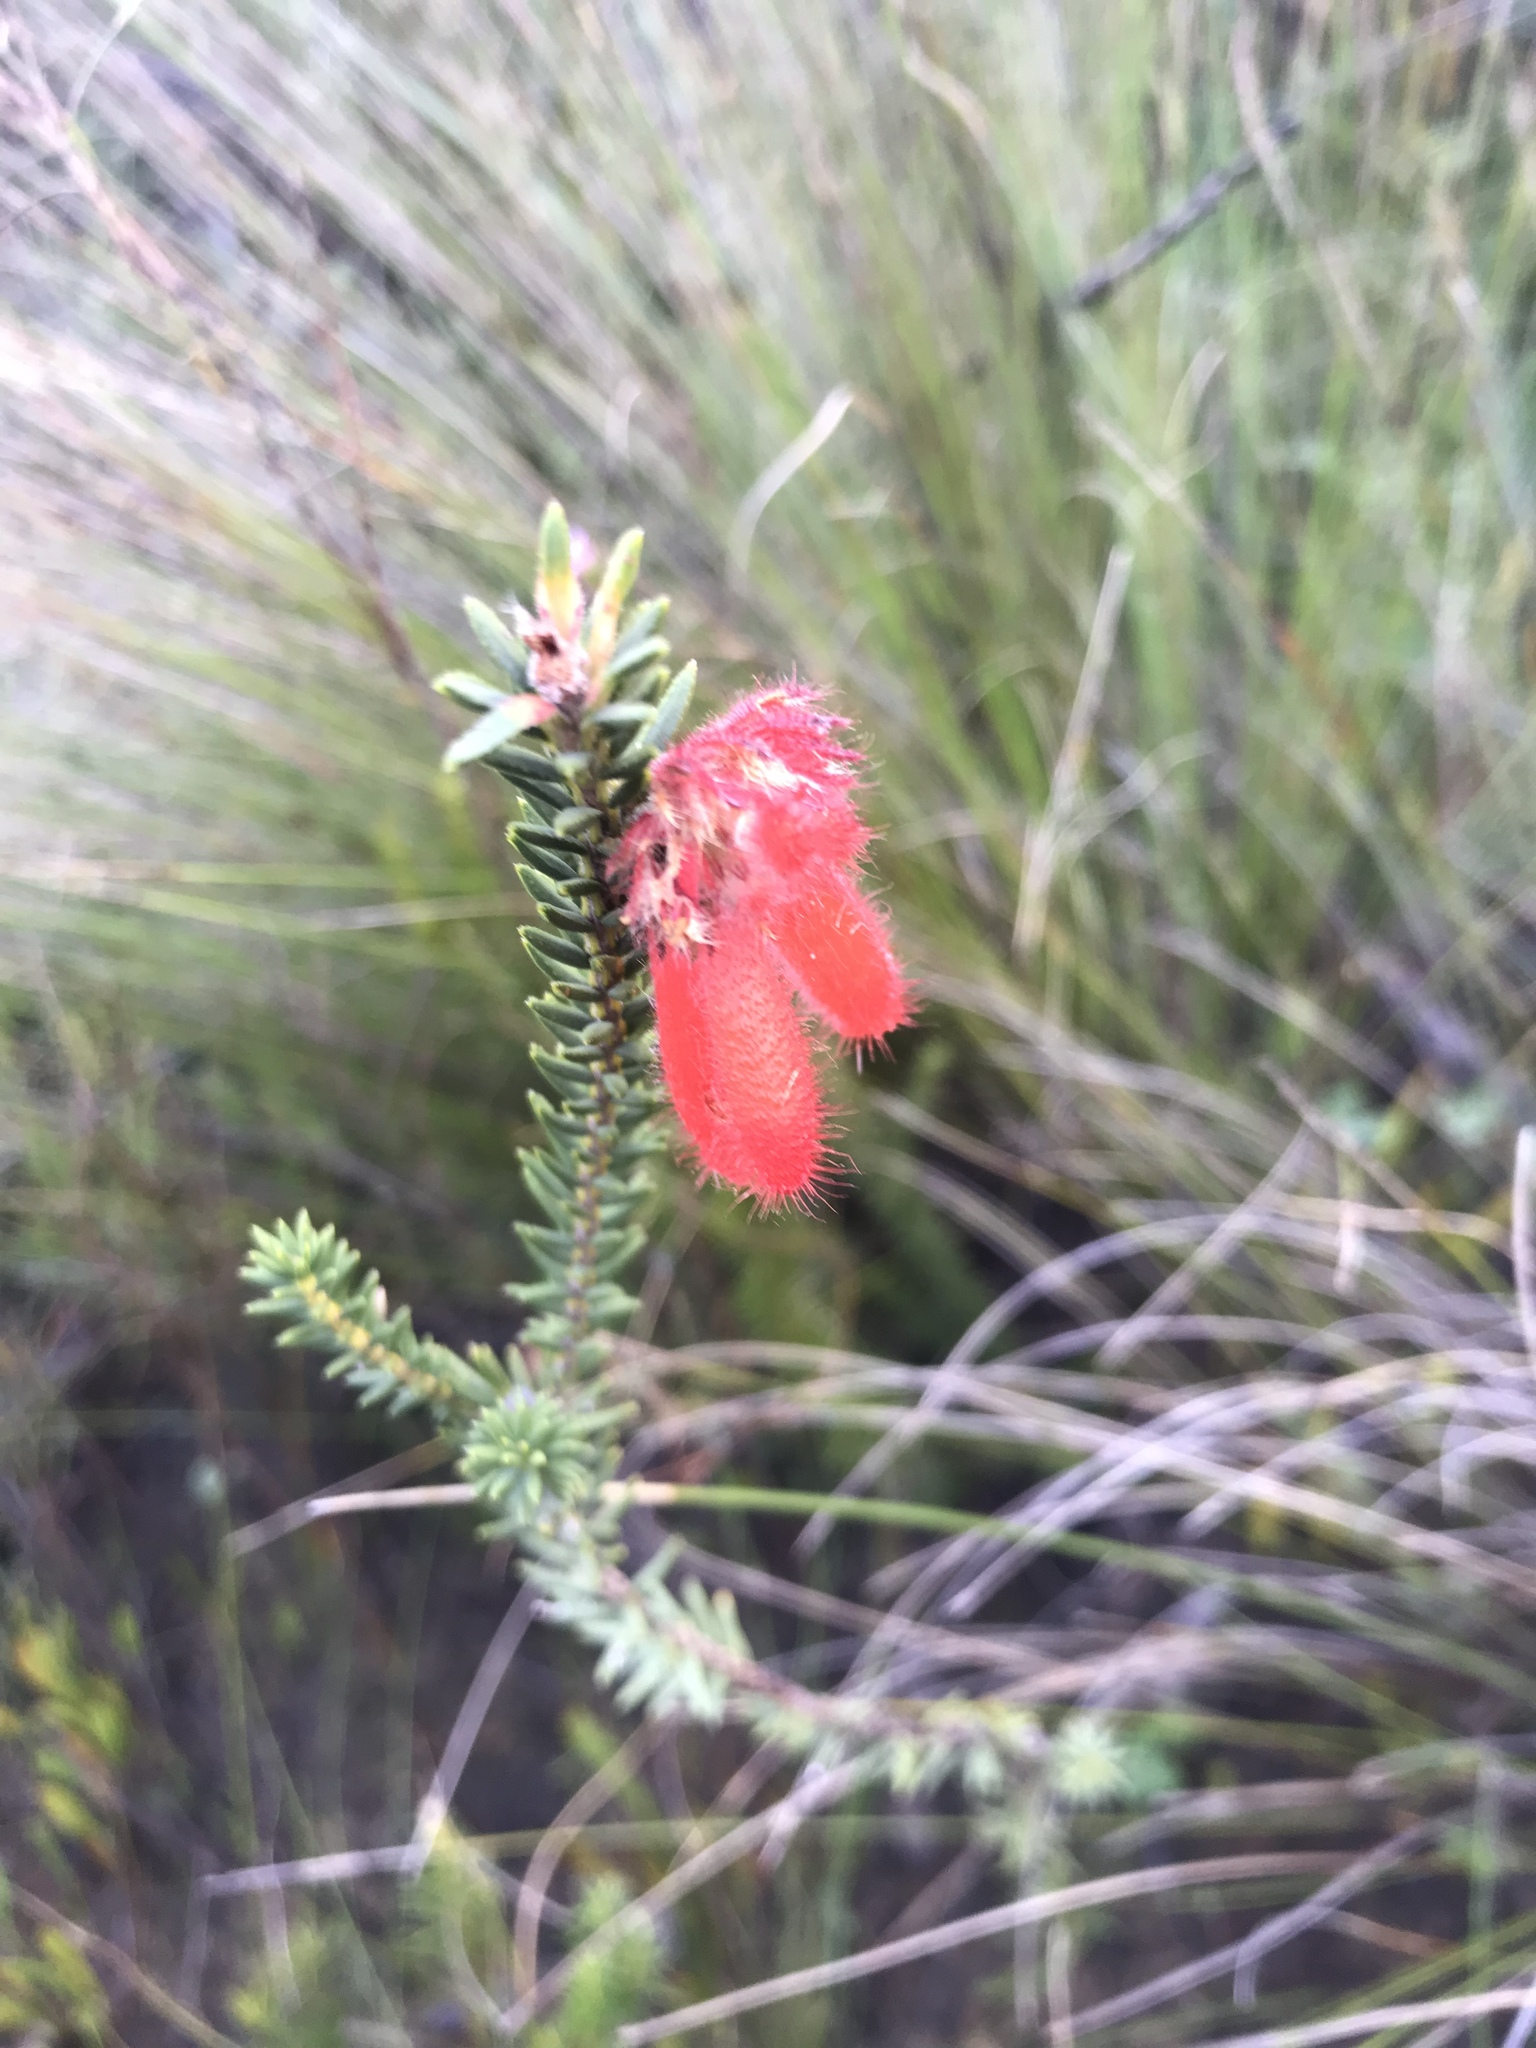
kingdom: Plantae
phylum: Tracheophyta
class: Magnoliopsida
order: Ericales
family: Ericaceae
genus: Erica
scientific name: Erica cerinthoides
